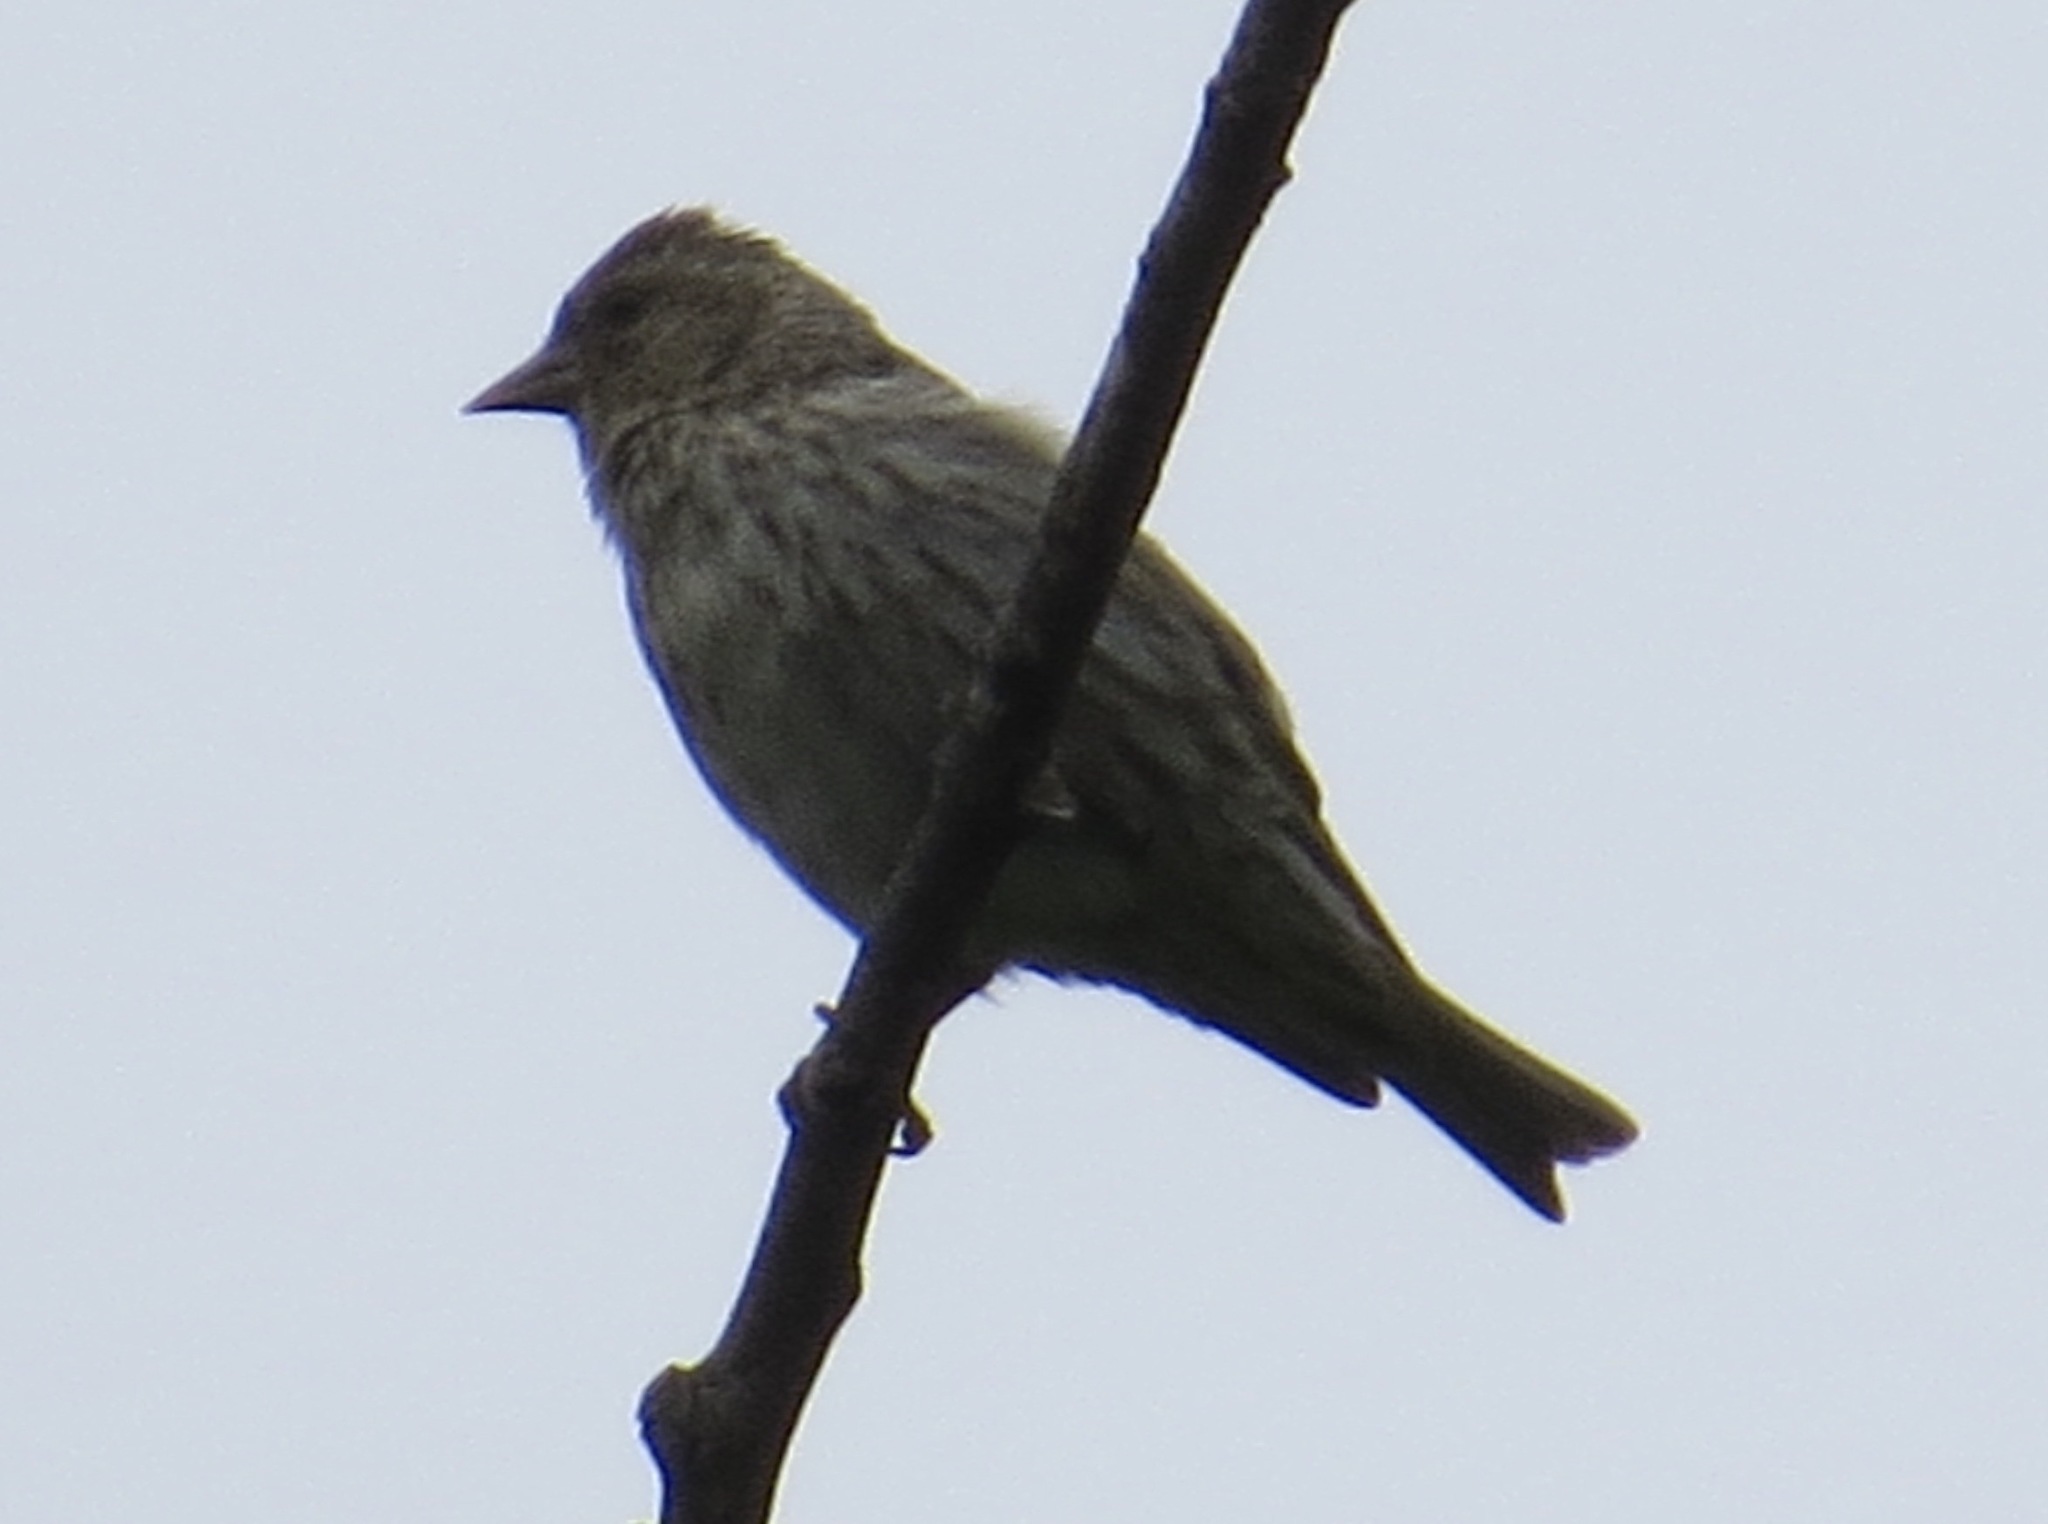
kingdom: Animalia
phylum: Chordata
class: Aves
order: Passeriformes
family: Fringillidae
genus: Spinus
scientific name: Spinus pinus
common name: Pine siskin
